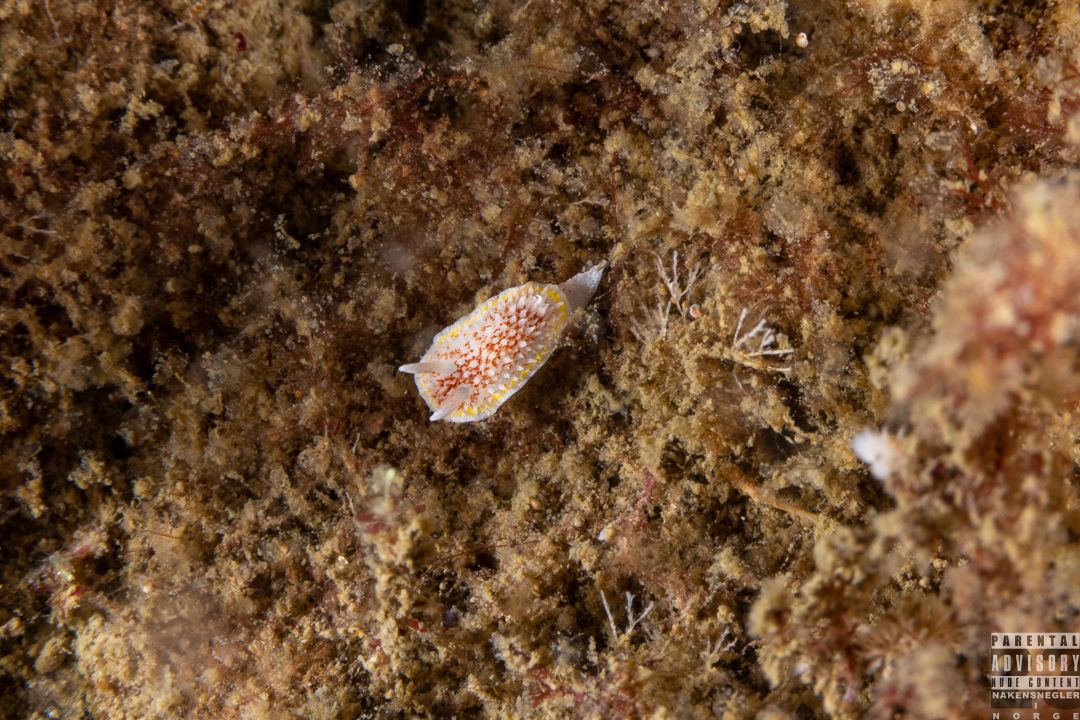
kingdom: Animalia
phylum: Mollusca
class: Gastropoda
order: Nudibranchia
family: Calycidorididae
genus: Diaphorodoris
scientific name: Diaphorodoris luteocincta
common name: Fried egg nudibranch
